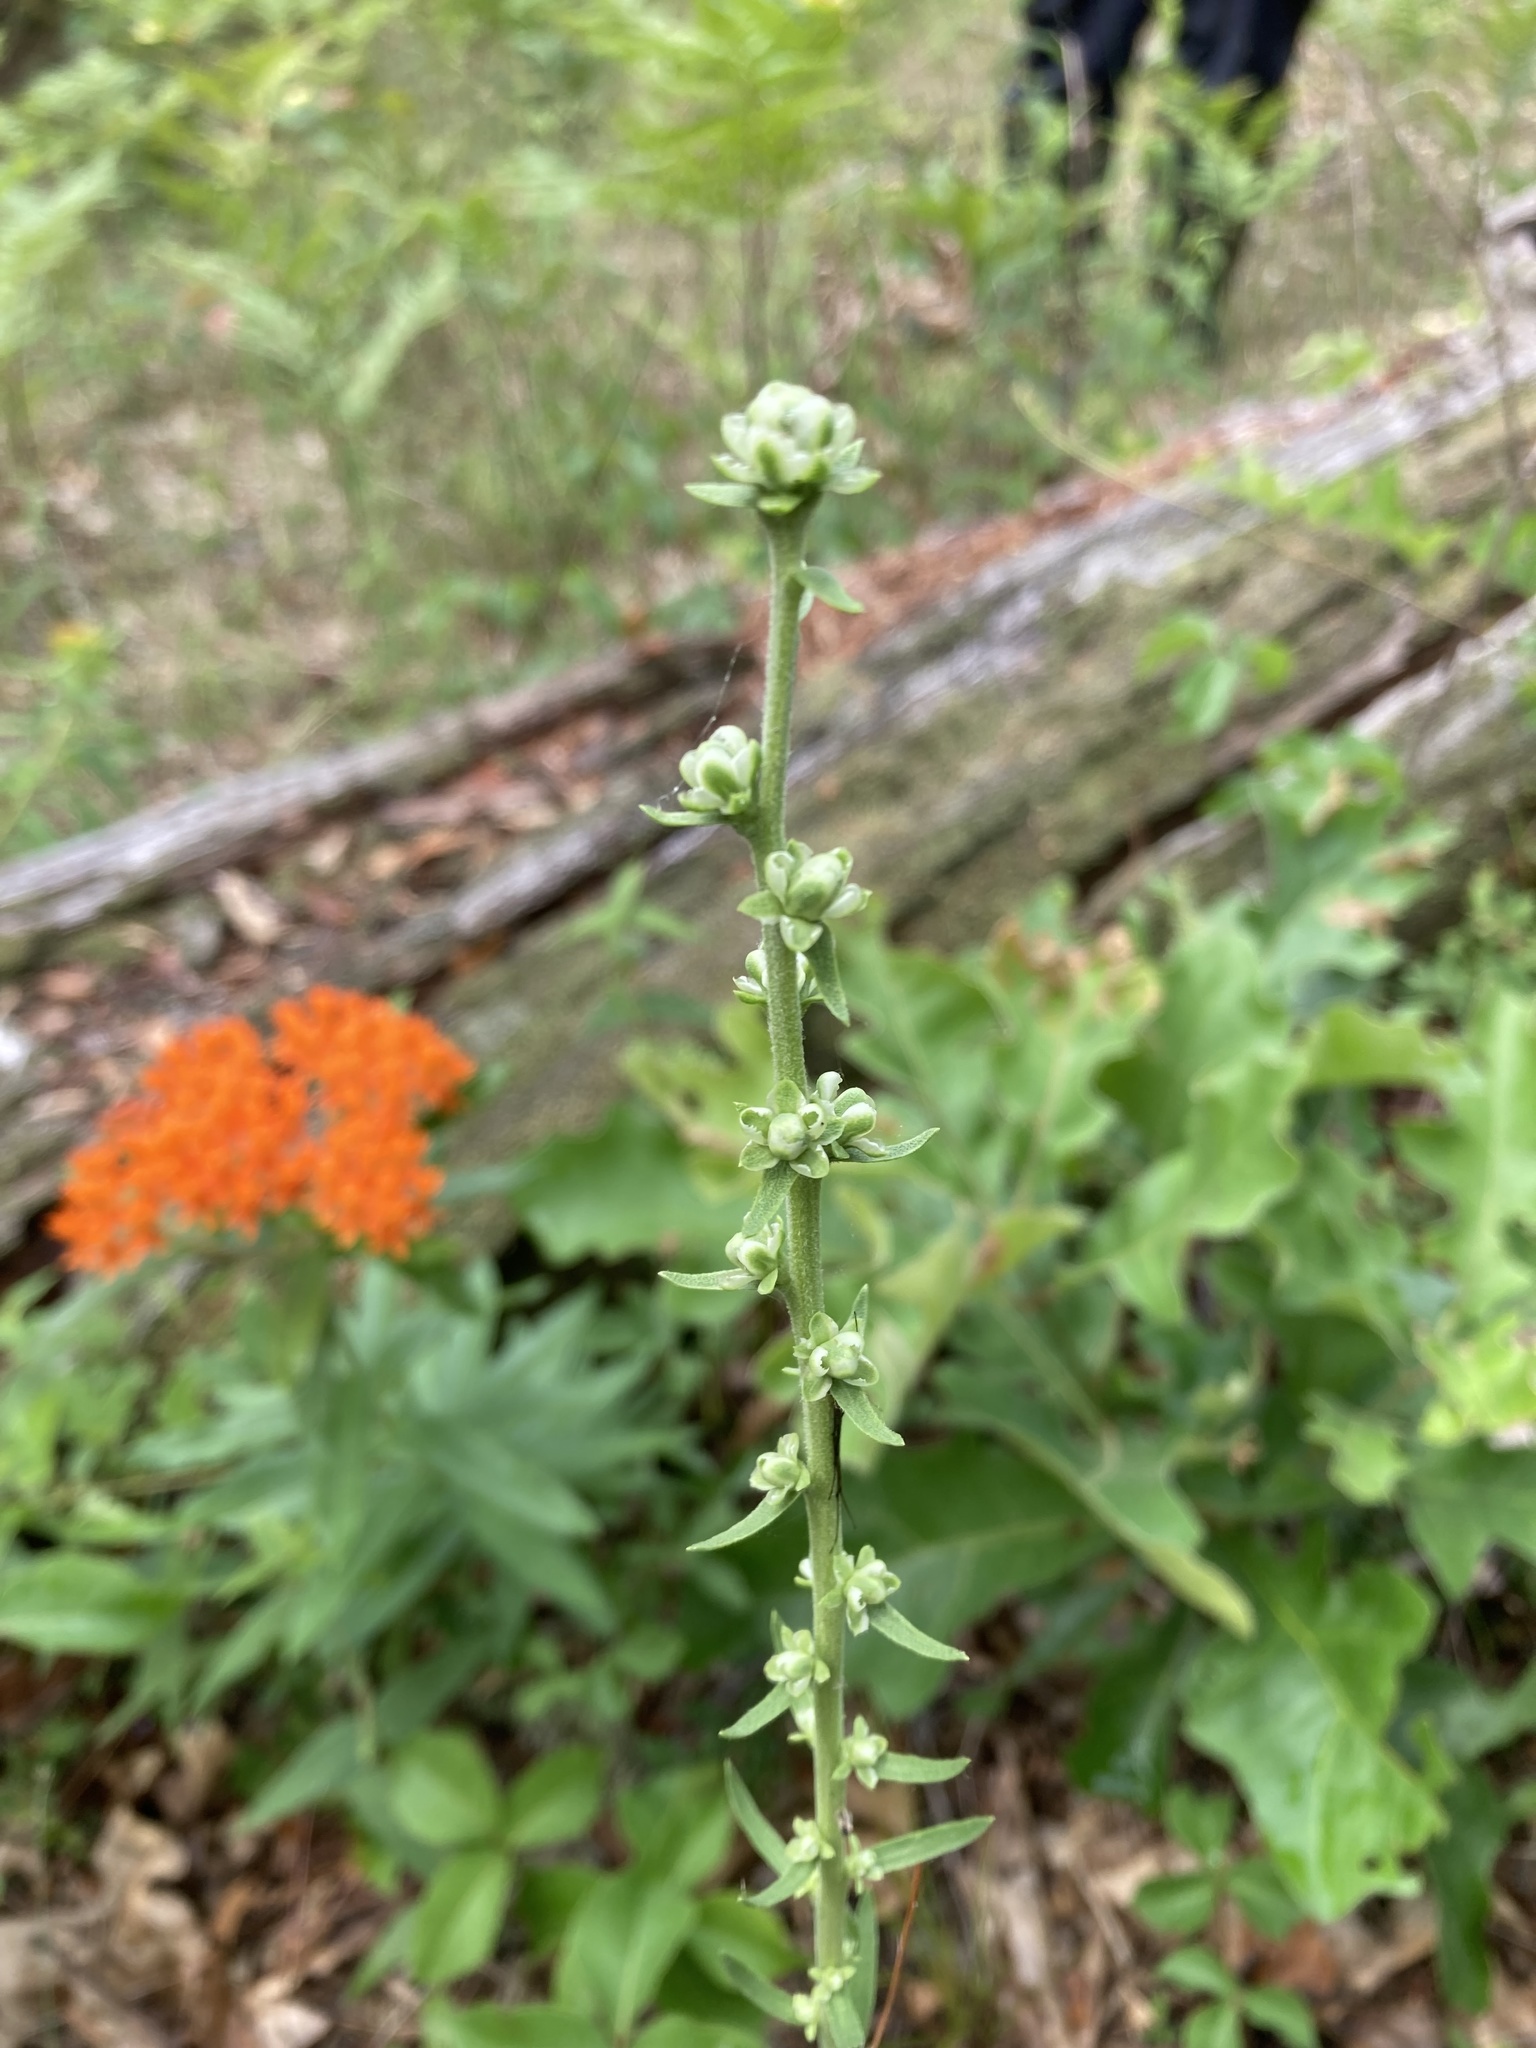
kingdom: Plantae
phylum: Tracheophyta
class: Magnoliopsida
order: Asterales
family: Asteraceae
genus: Liatris
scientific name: Liatris aspera
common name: Lacerate blazing-star
